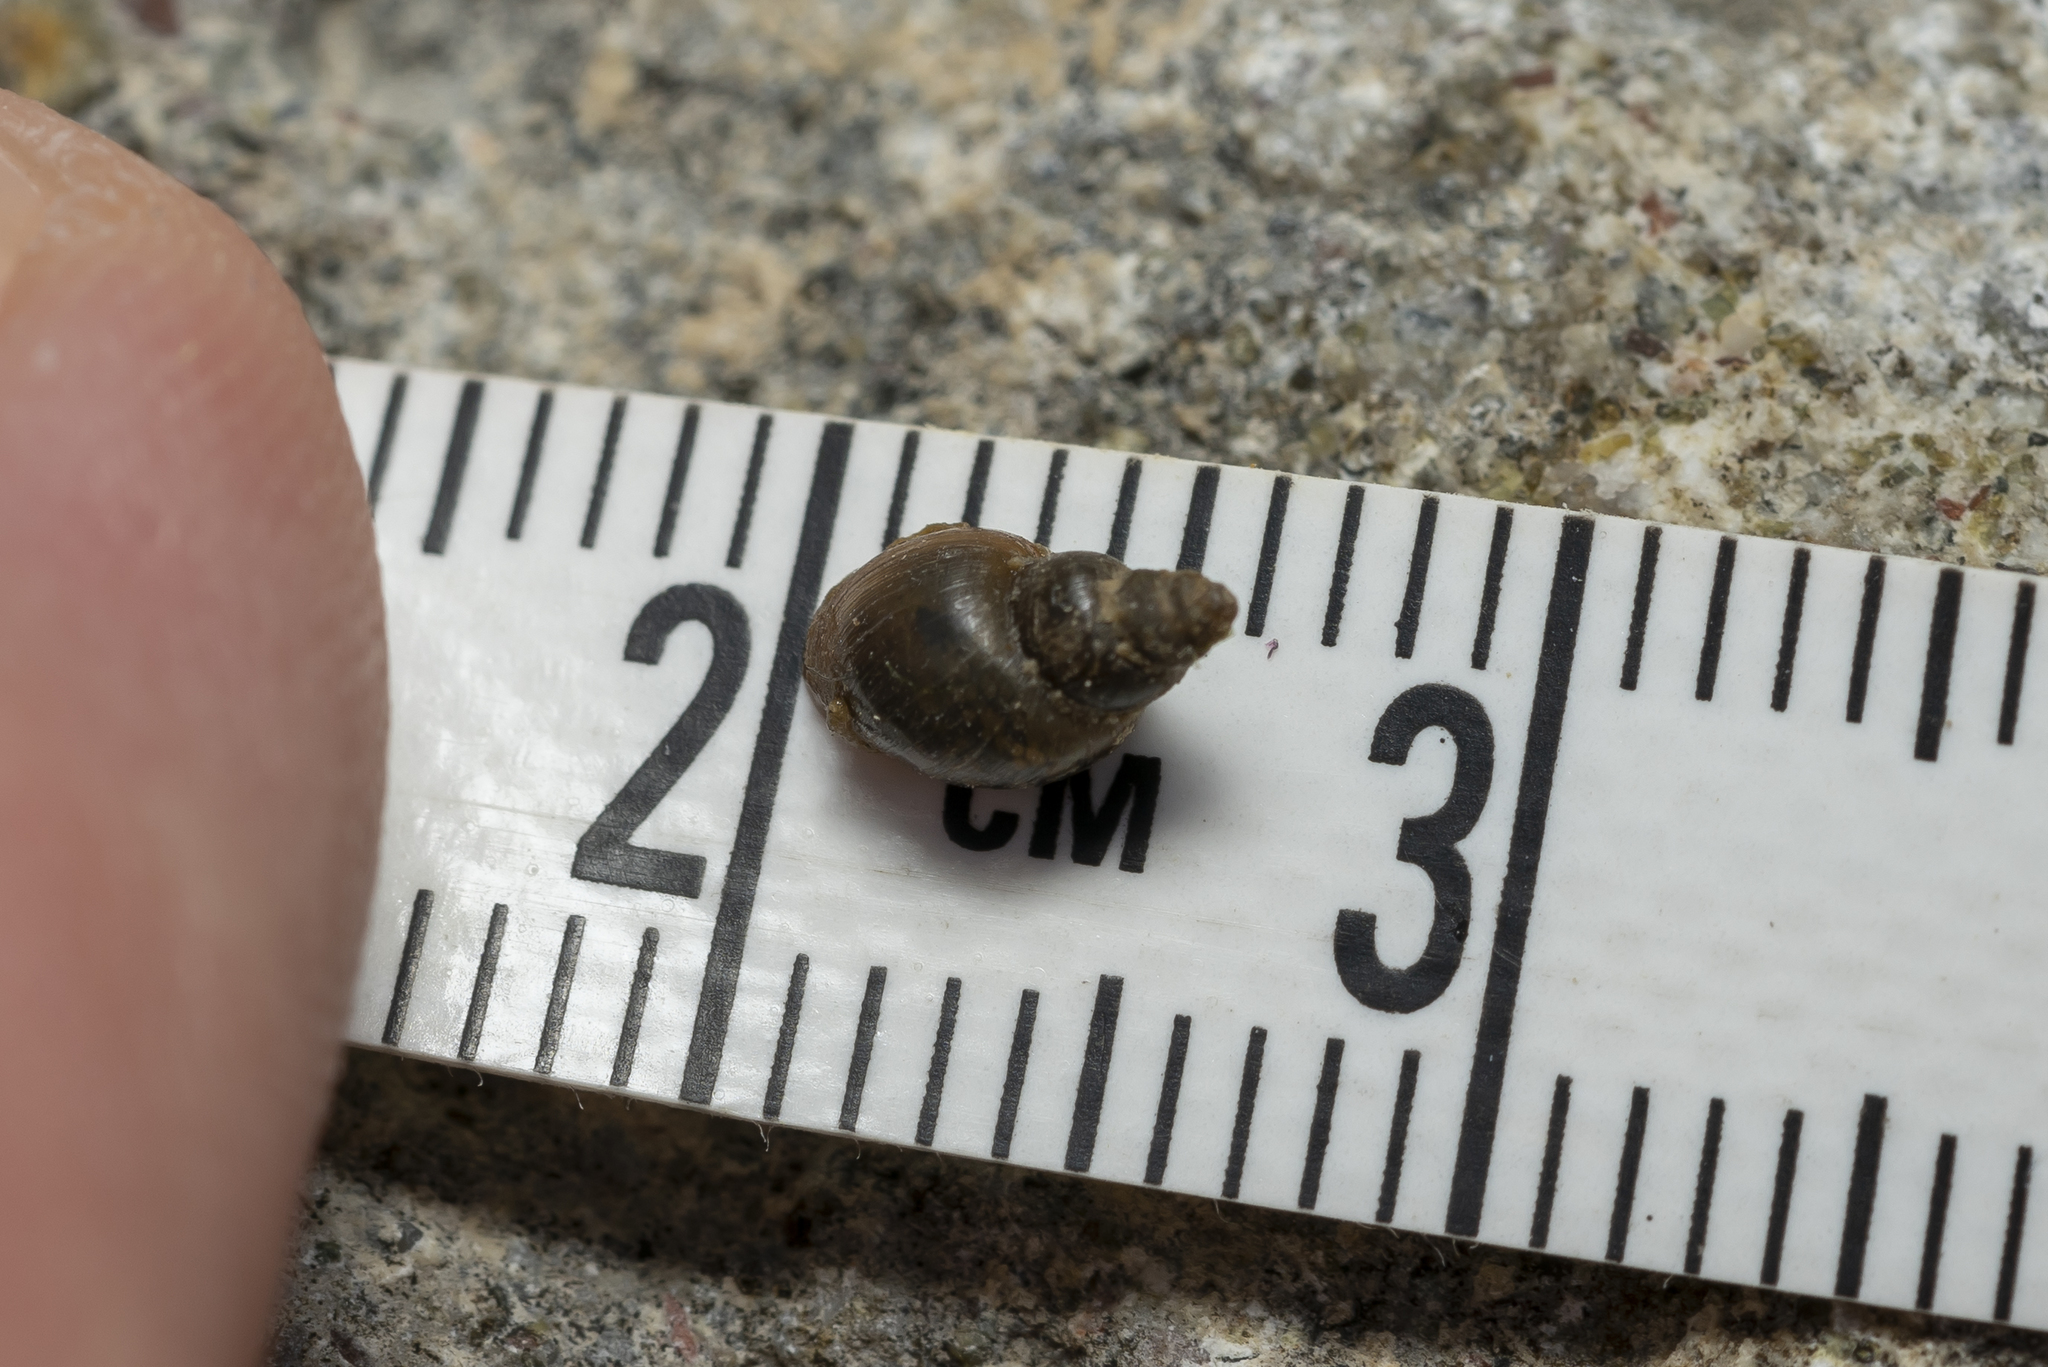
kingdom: Animalia
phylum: Mollusca
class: Gastropoda
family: Lymnaeidae
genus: Galba
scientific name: Galba truncatula
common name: Dwarf pond snail
